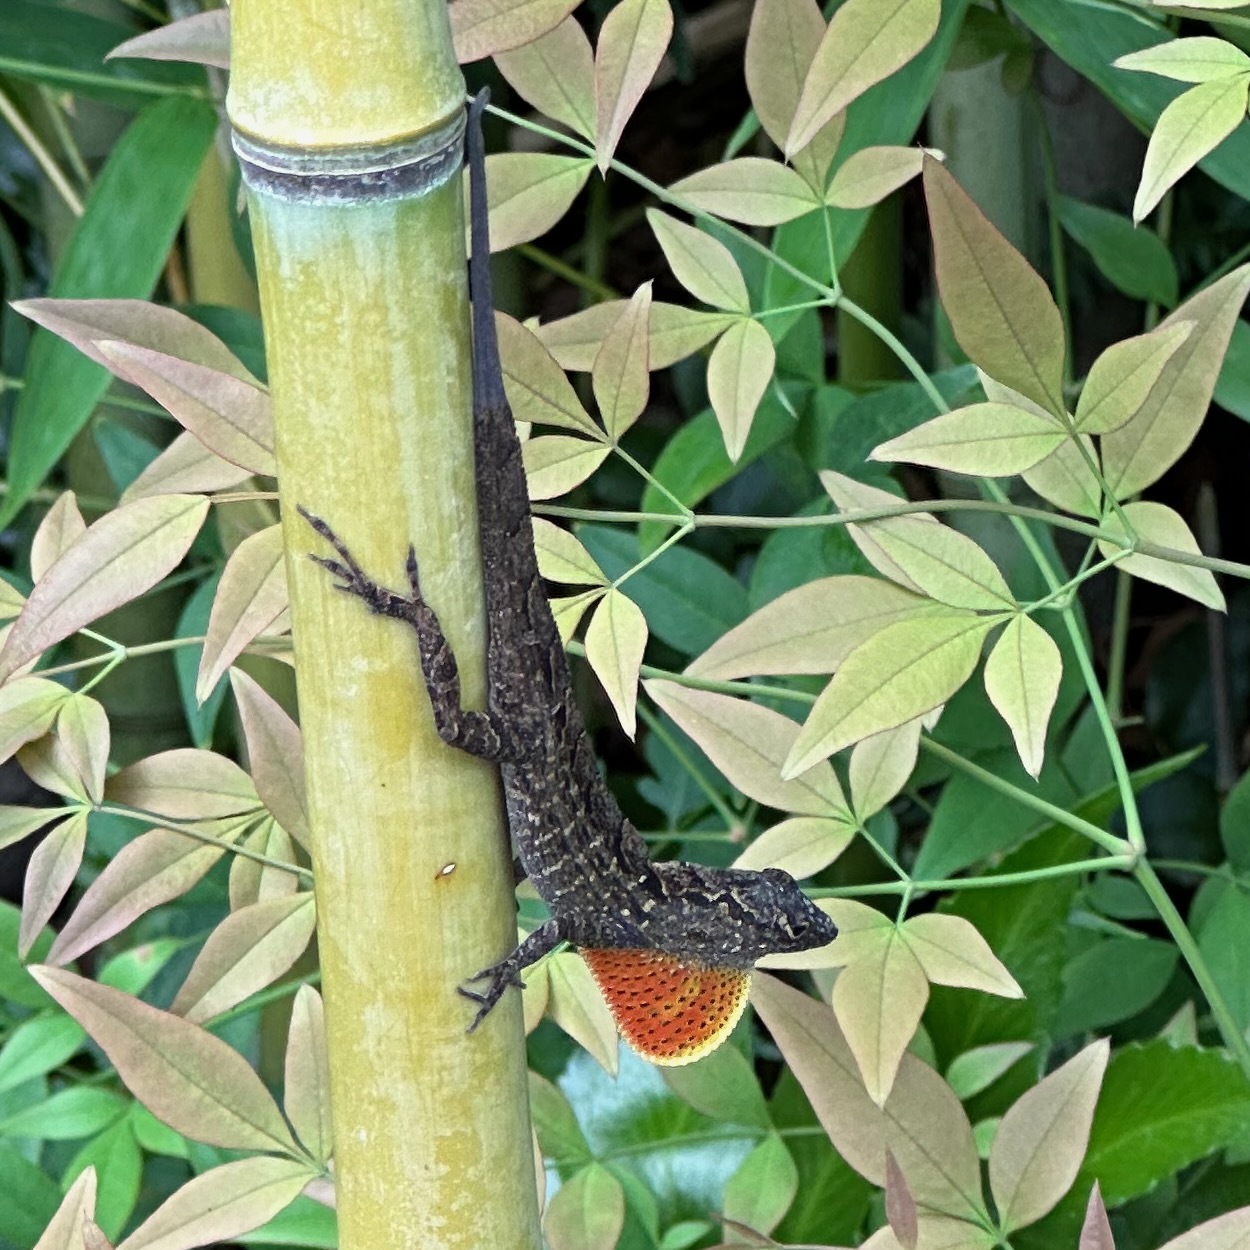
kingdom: Animalia
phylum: Chordata
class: Squamata
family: Dactyloidae
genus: Anolis
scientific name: Anolis sagrei
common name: Brown anole
